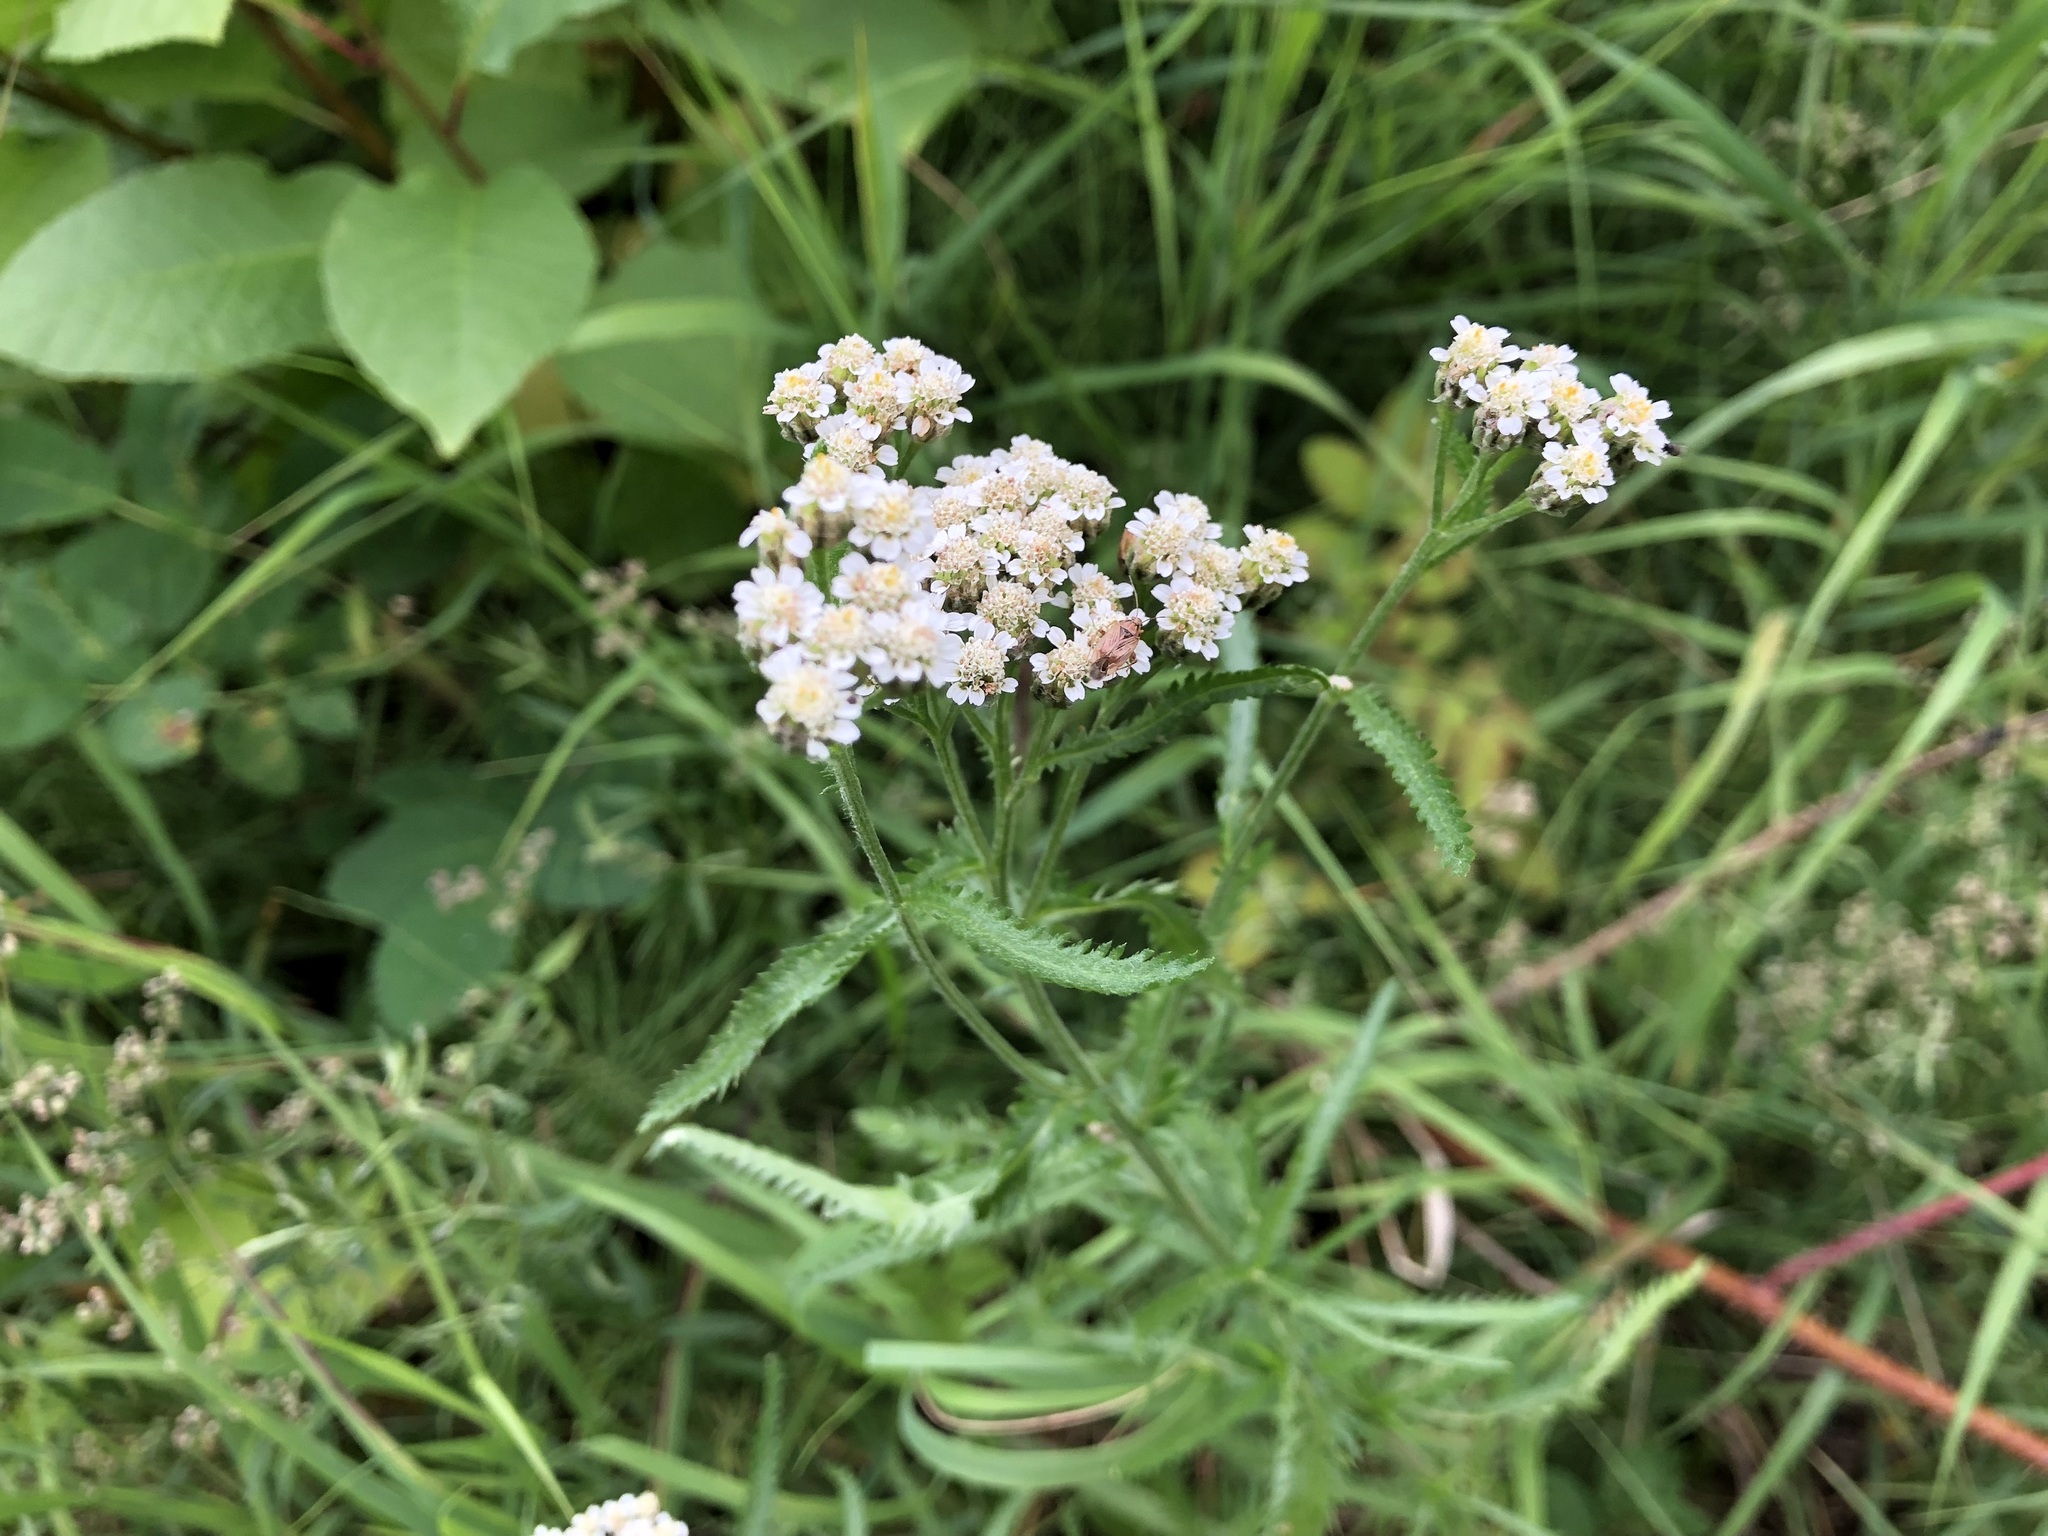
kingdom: Plantae
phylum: Tracheophyta
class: Magnoliopsida
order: Asterales
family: Asteraceae
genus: Achillea
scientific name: Achillea alpina
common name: Siberian yarrow
